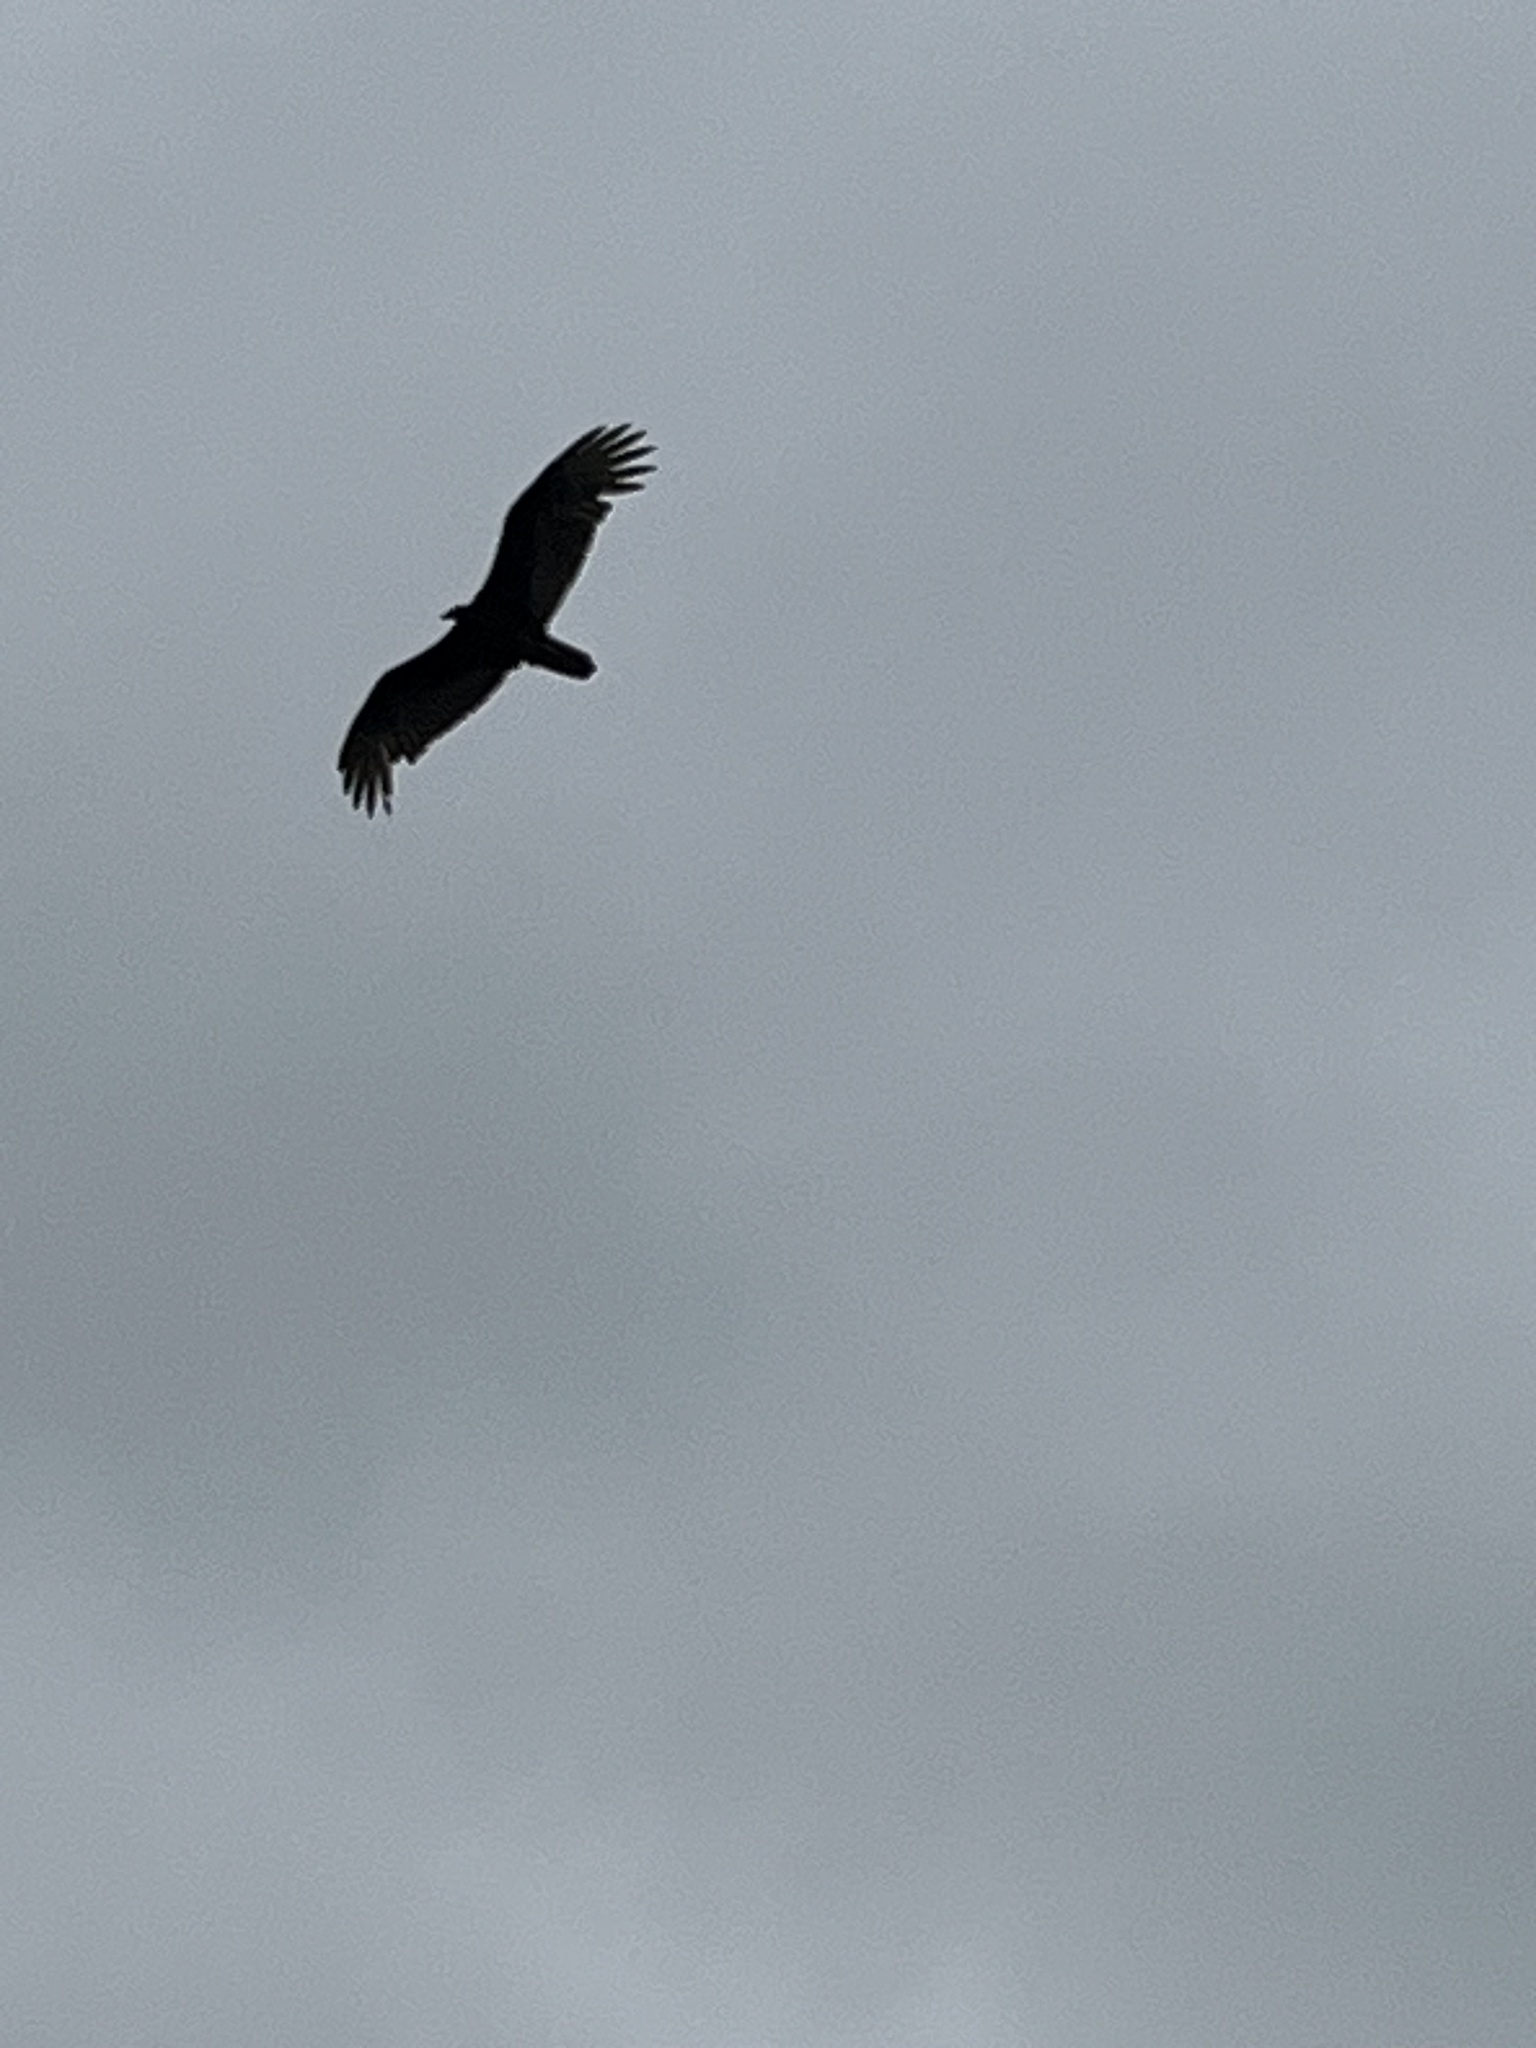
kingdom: Animalia
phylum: Chordata
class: Aves
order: Accipitriformes
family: Cathartidae
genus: Cathartes
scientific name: Cathartes aura
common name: Turkey vulture
